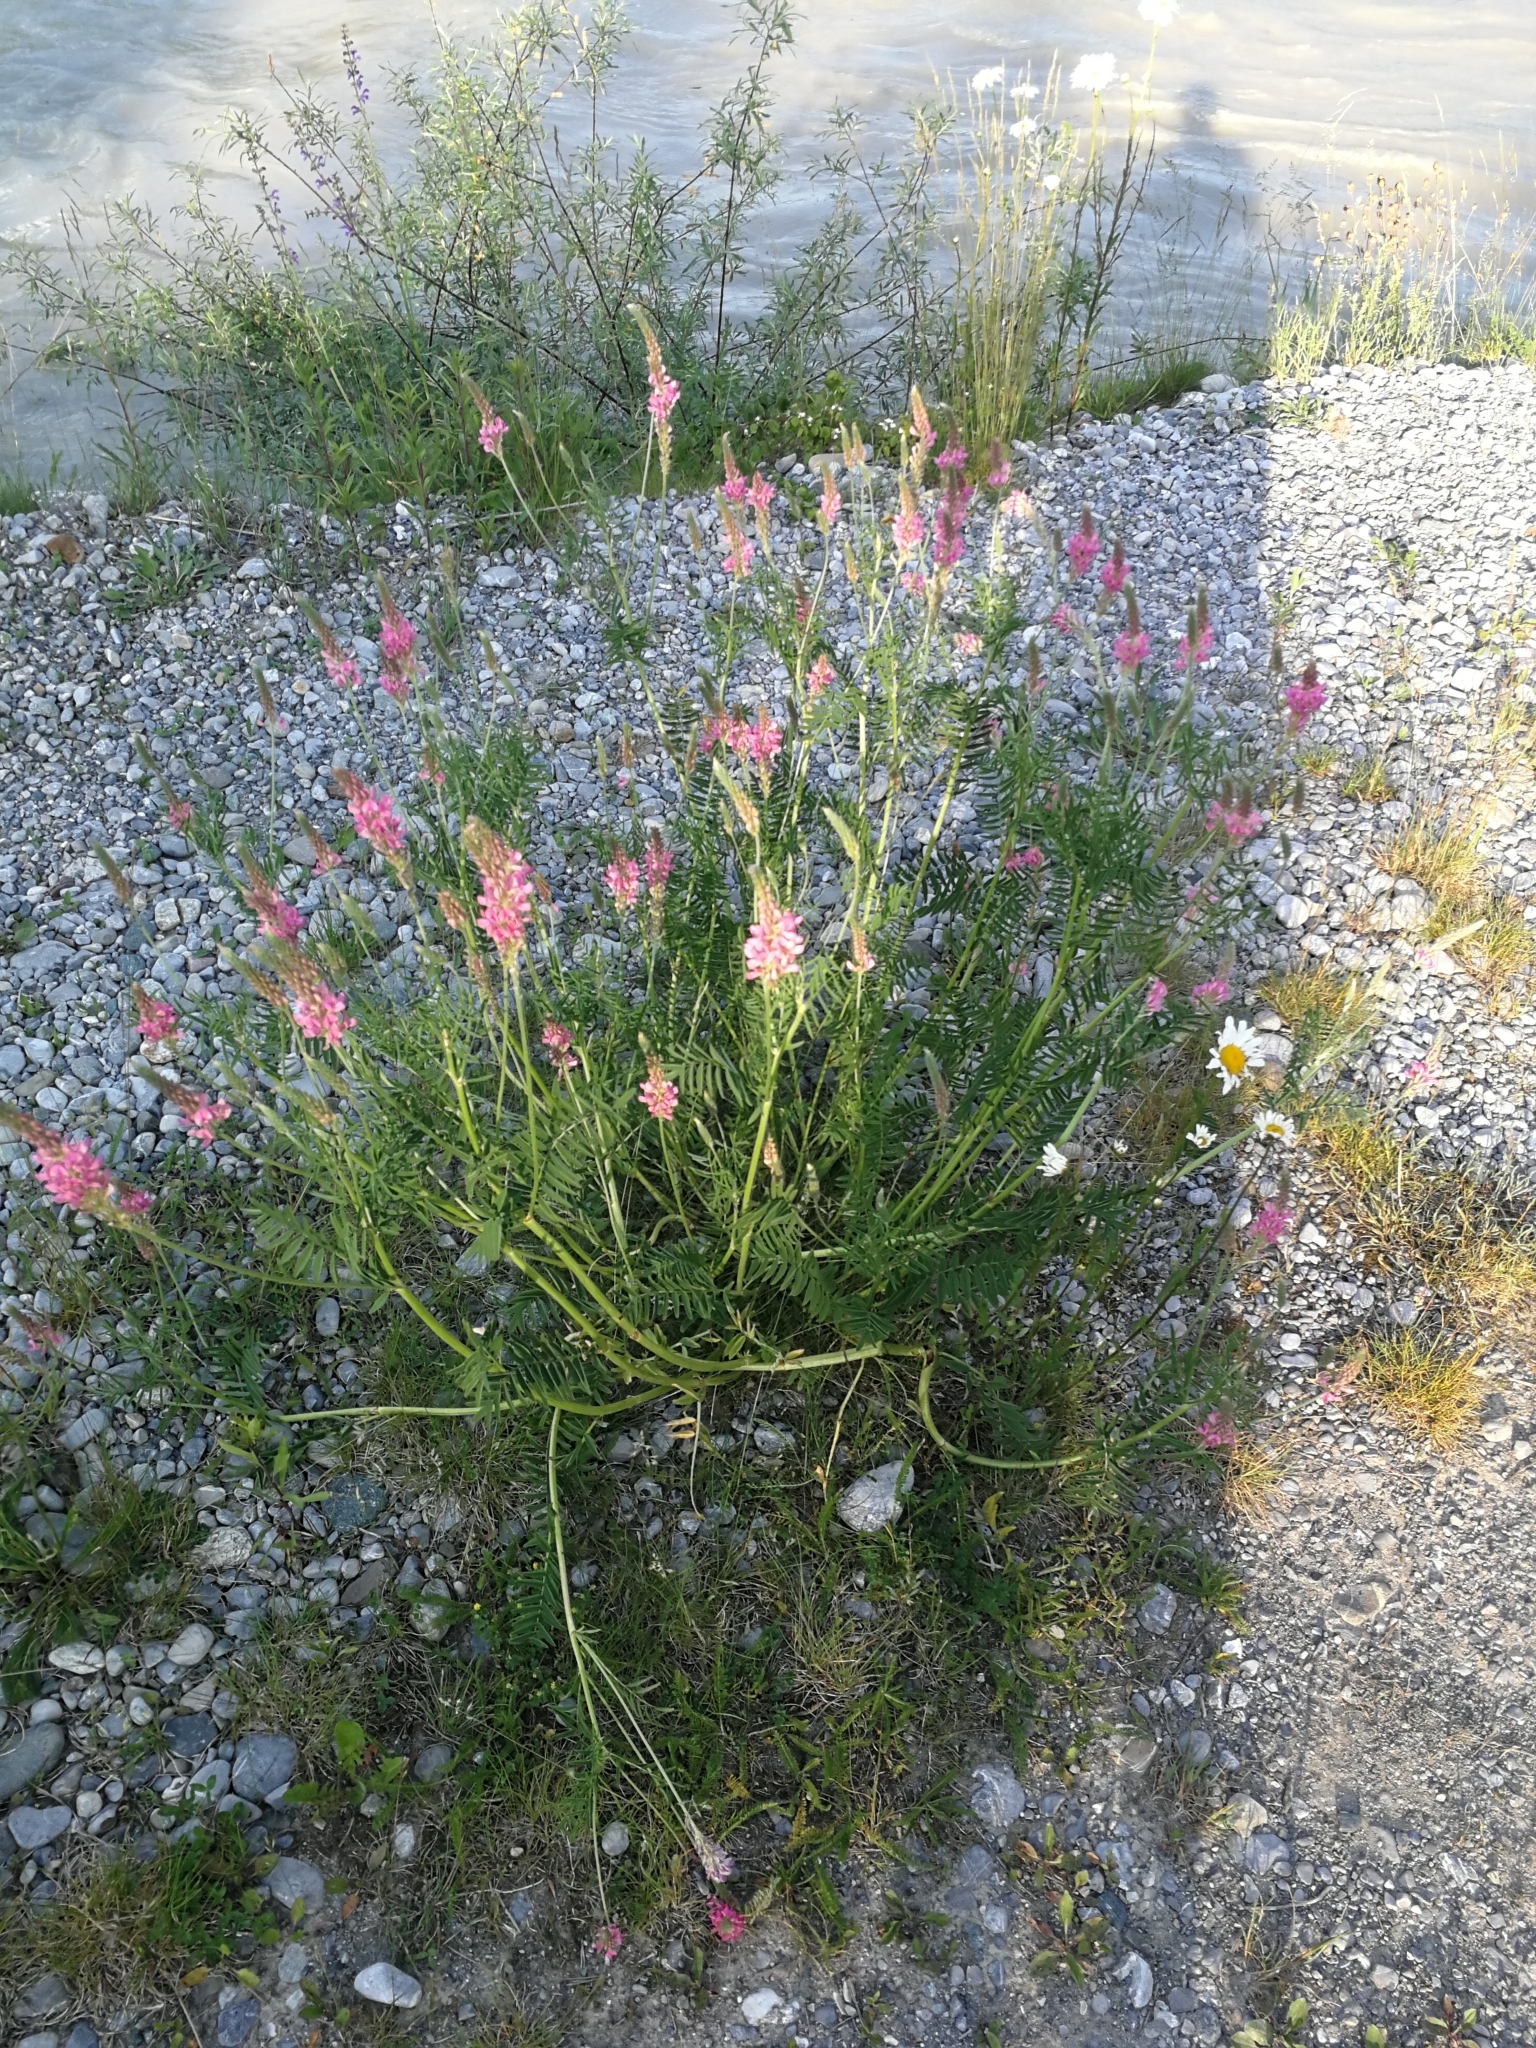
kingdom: Plantae
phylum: Tracheophyta
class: Magnoliopsida
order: Fabales
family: Fabaceae
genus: Onobrychis
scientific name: Onobrychis viciifolia
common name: Sainfoin
